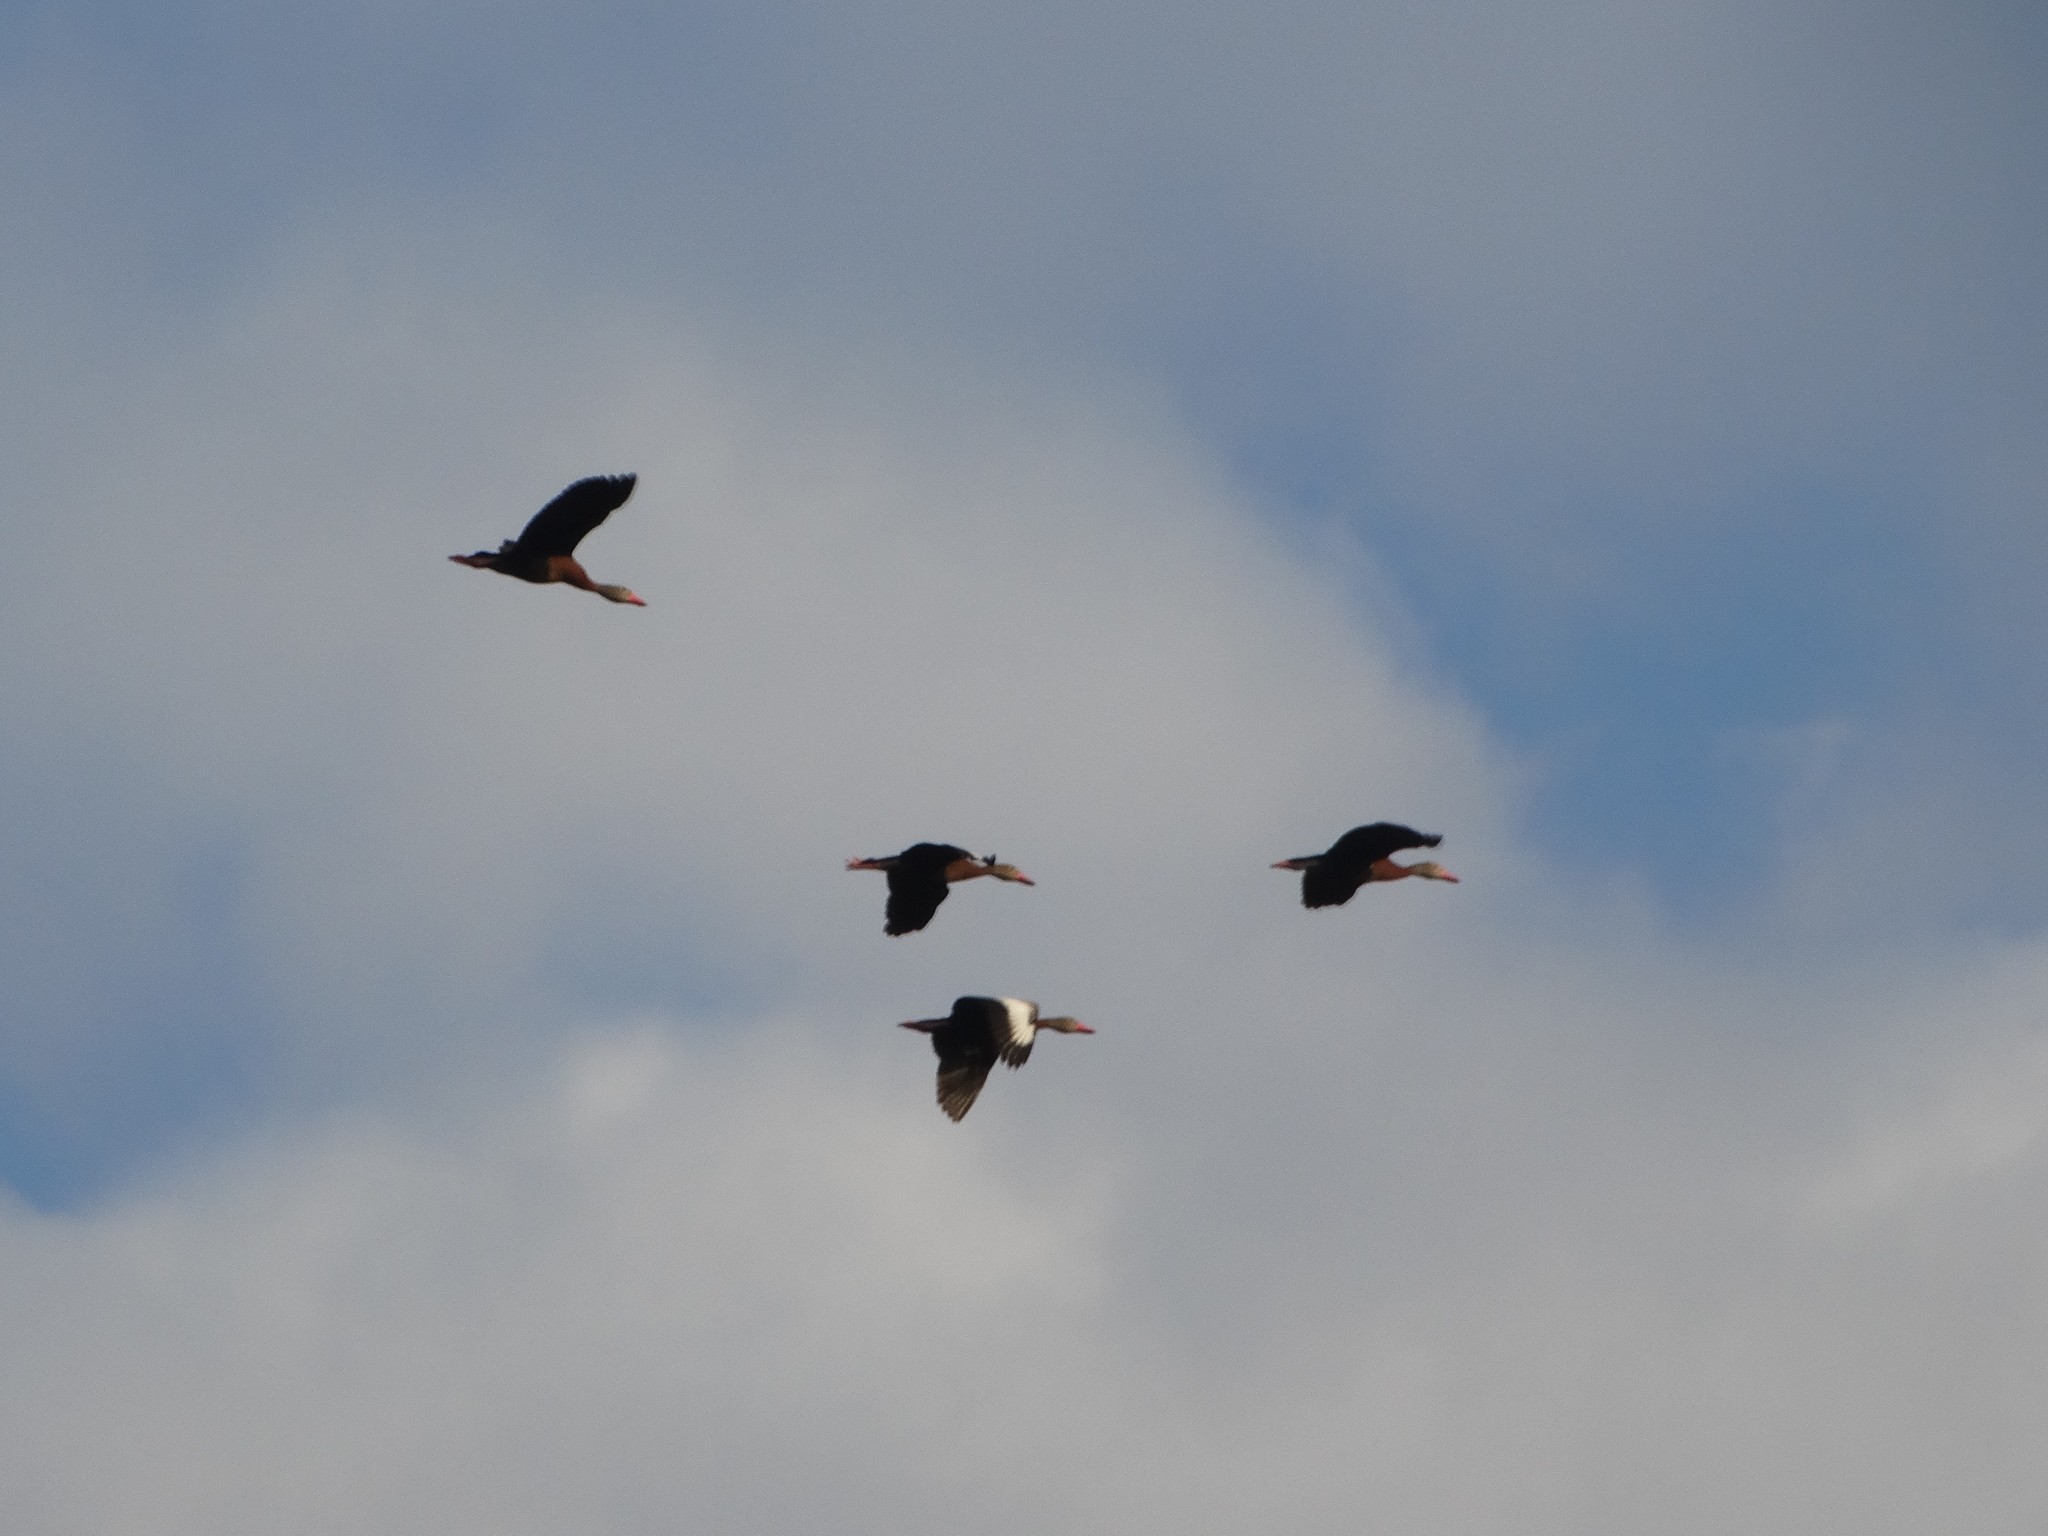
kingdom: Animalia
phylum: Chordata
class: Aves
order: Anseriformes
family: Anatidae
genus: Dendrocygna
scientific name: Dendrocygna autumnalis
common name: Black-bellied whistling duck
